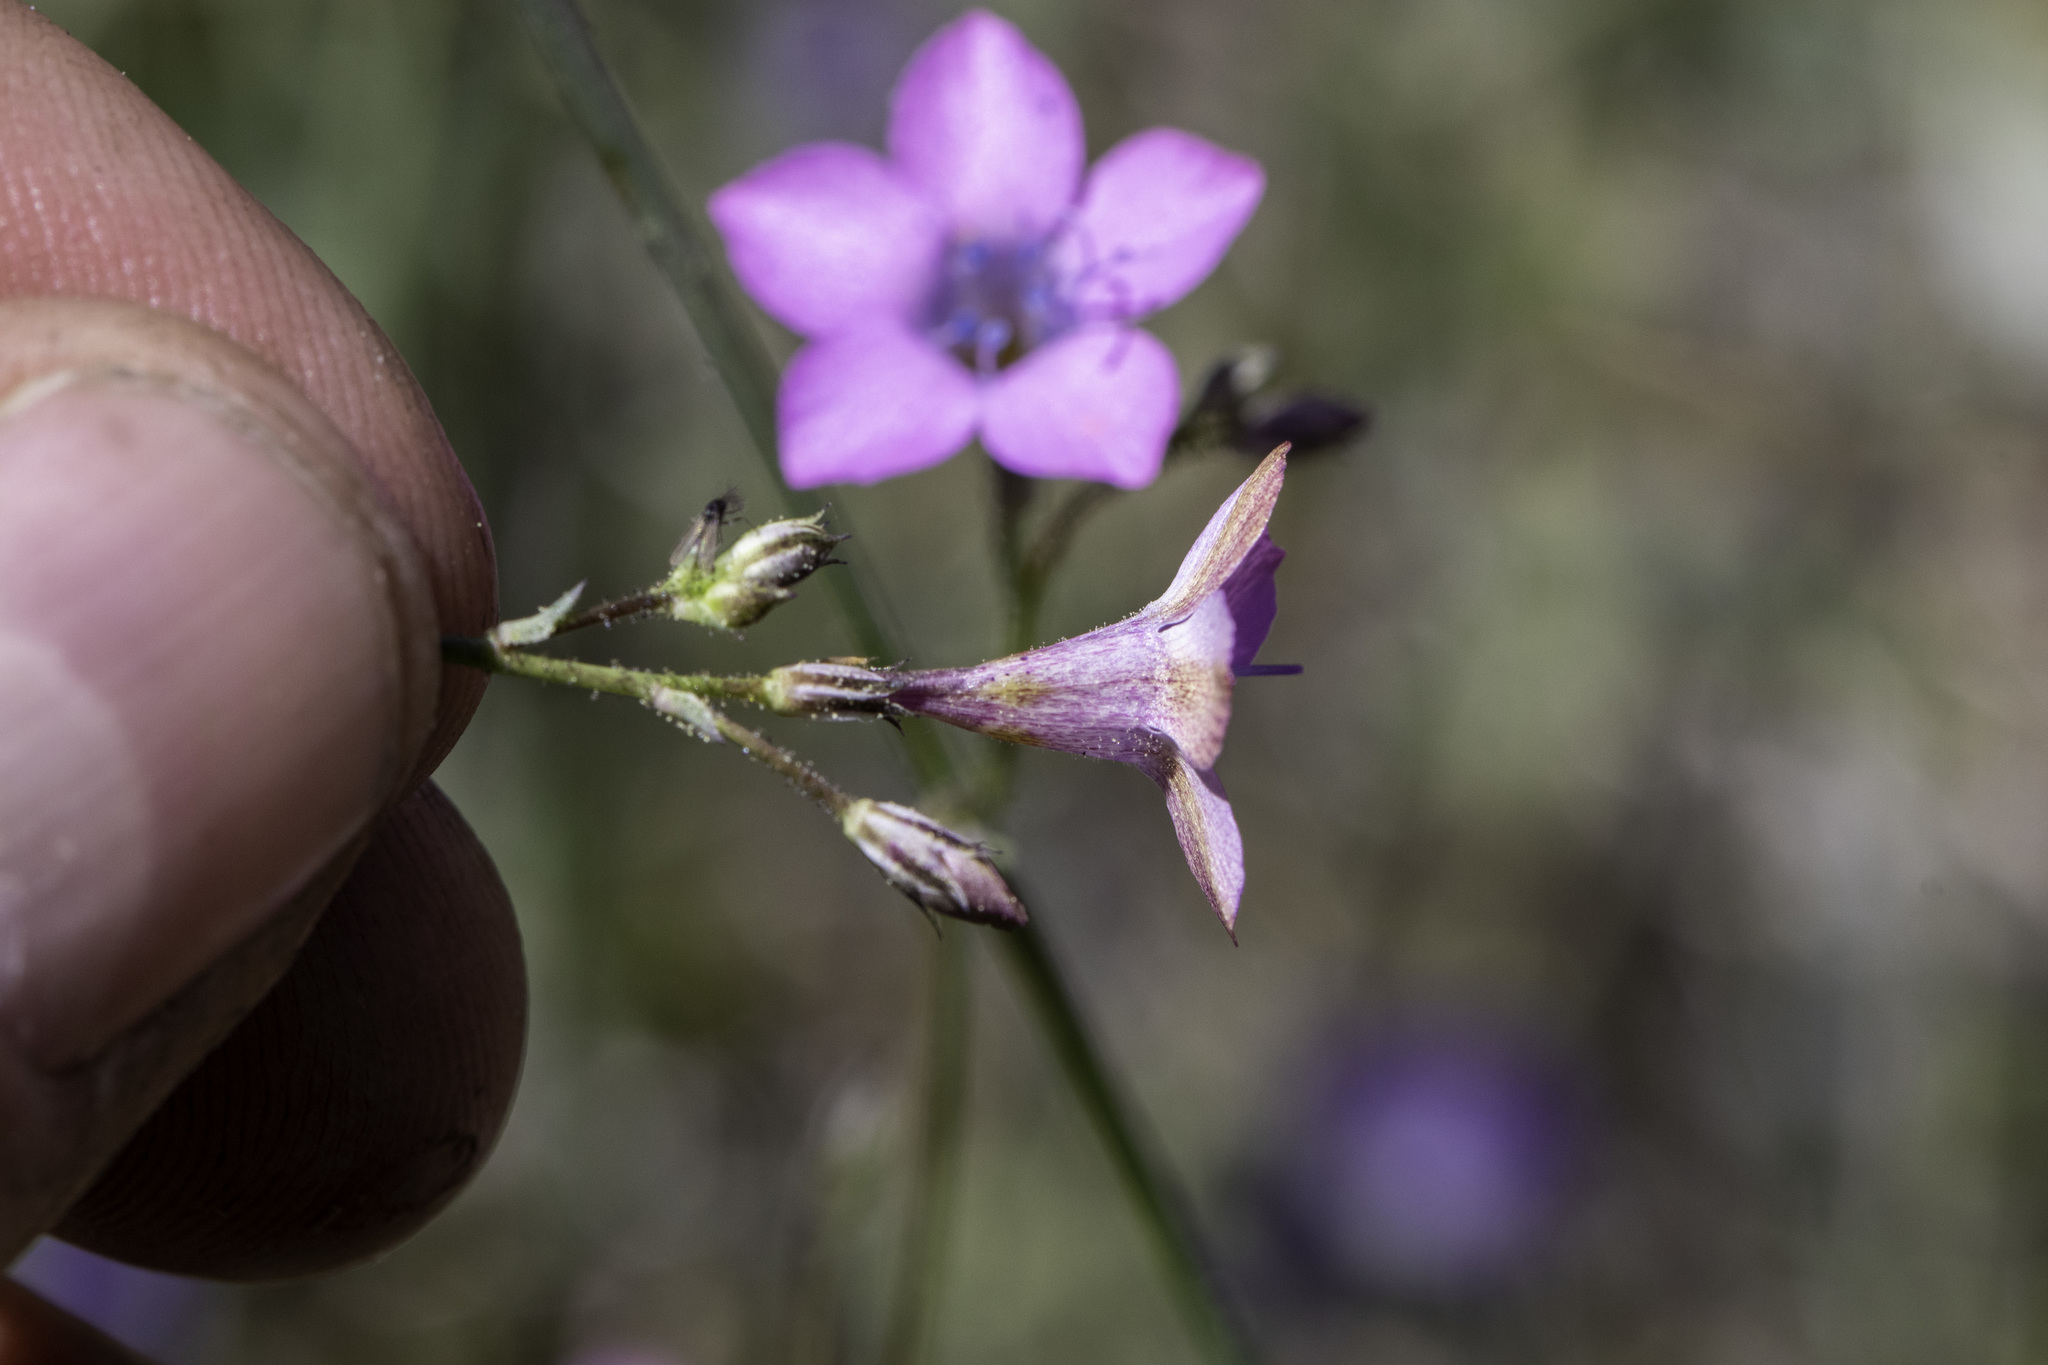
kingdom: Plantae
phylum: Tracheophyta
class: Magnoliopsida
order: Ericales
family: Polemoniaceae
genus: Saltugilia
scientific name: Saltugilia splendens
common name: Grinnell's gilia
